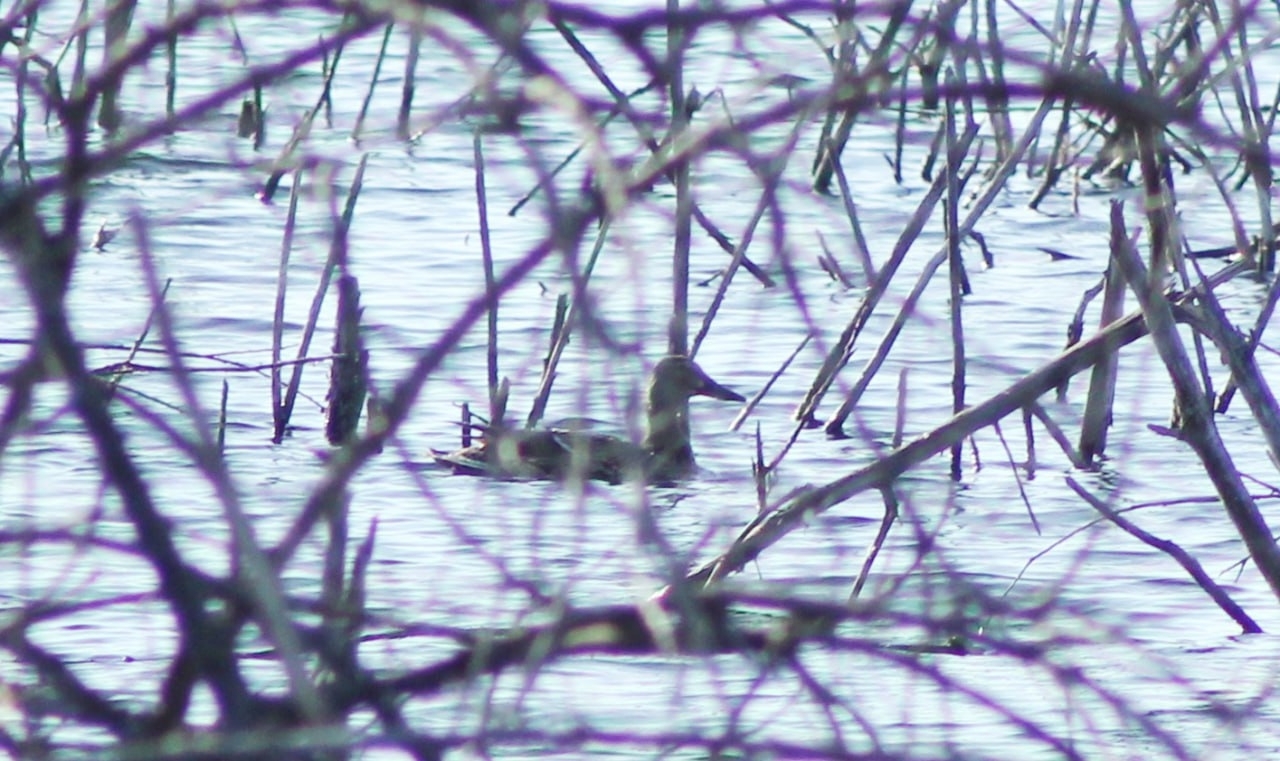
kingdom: Animalia
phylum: Chordata
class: Aves
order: Anseriformes
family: Anatidae
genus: Anas
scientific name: Anas platyrhynchos
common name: Mallard
